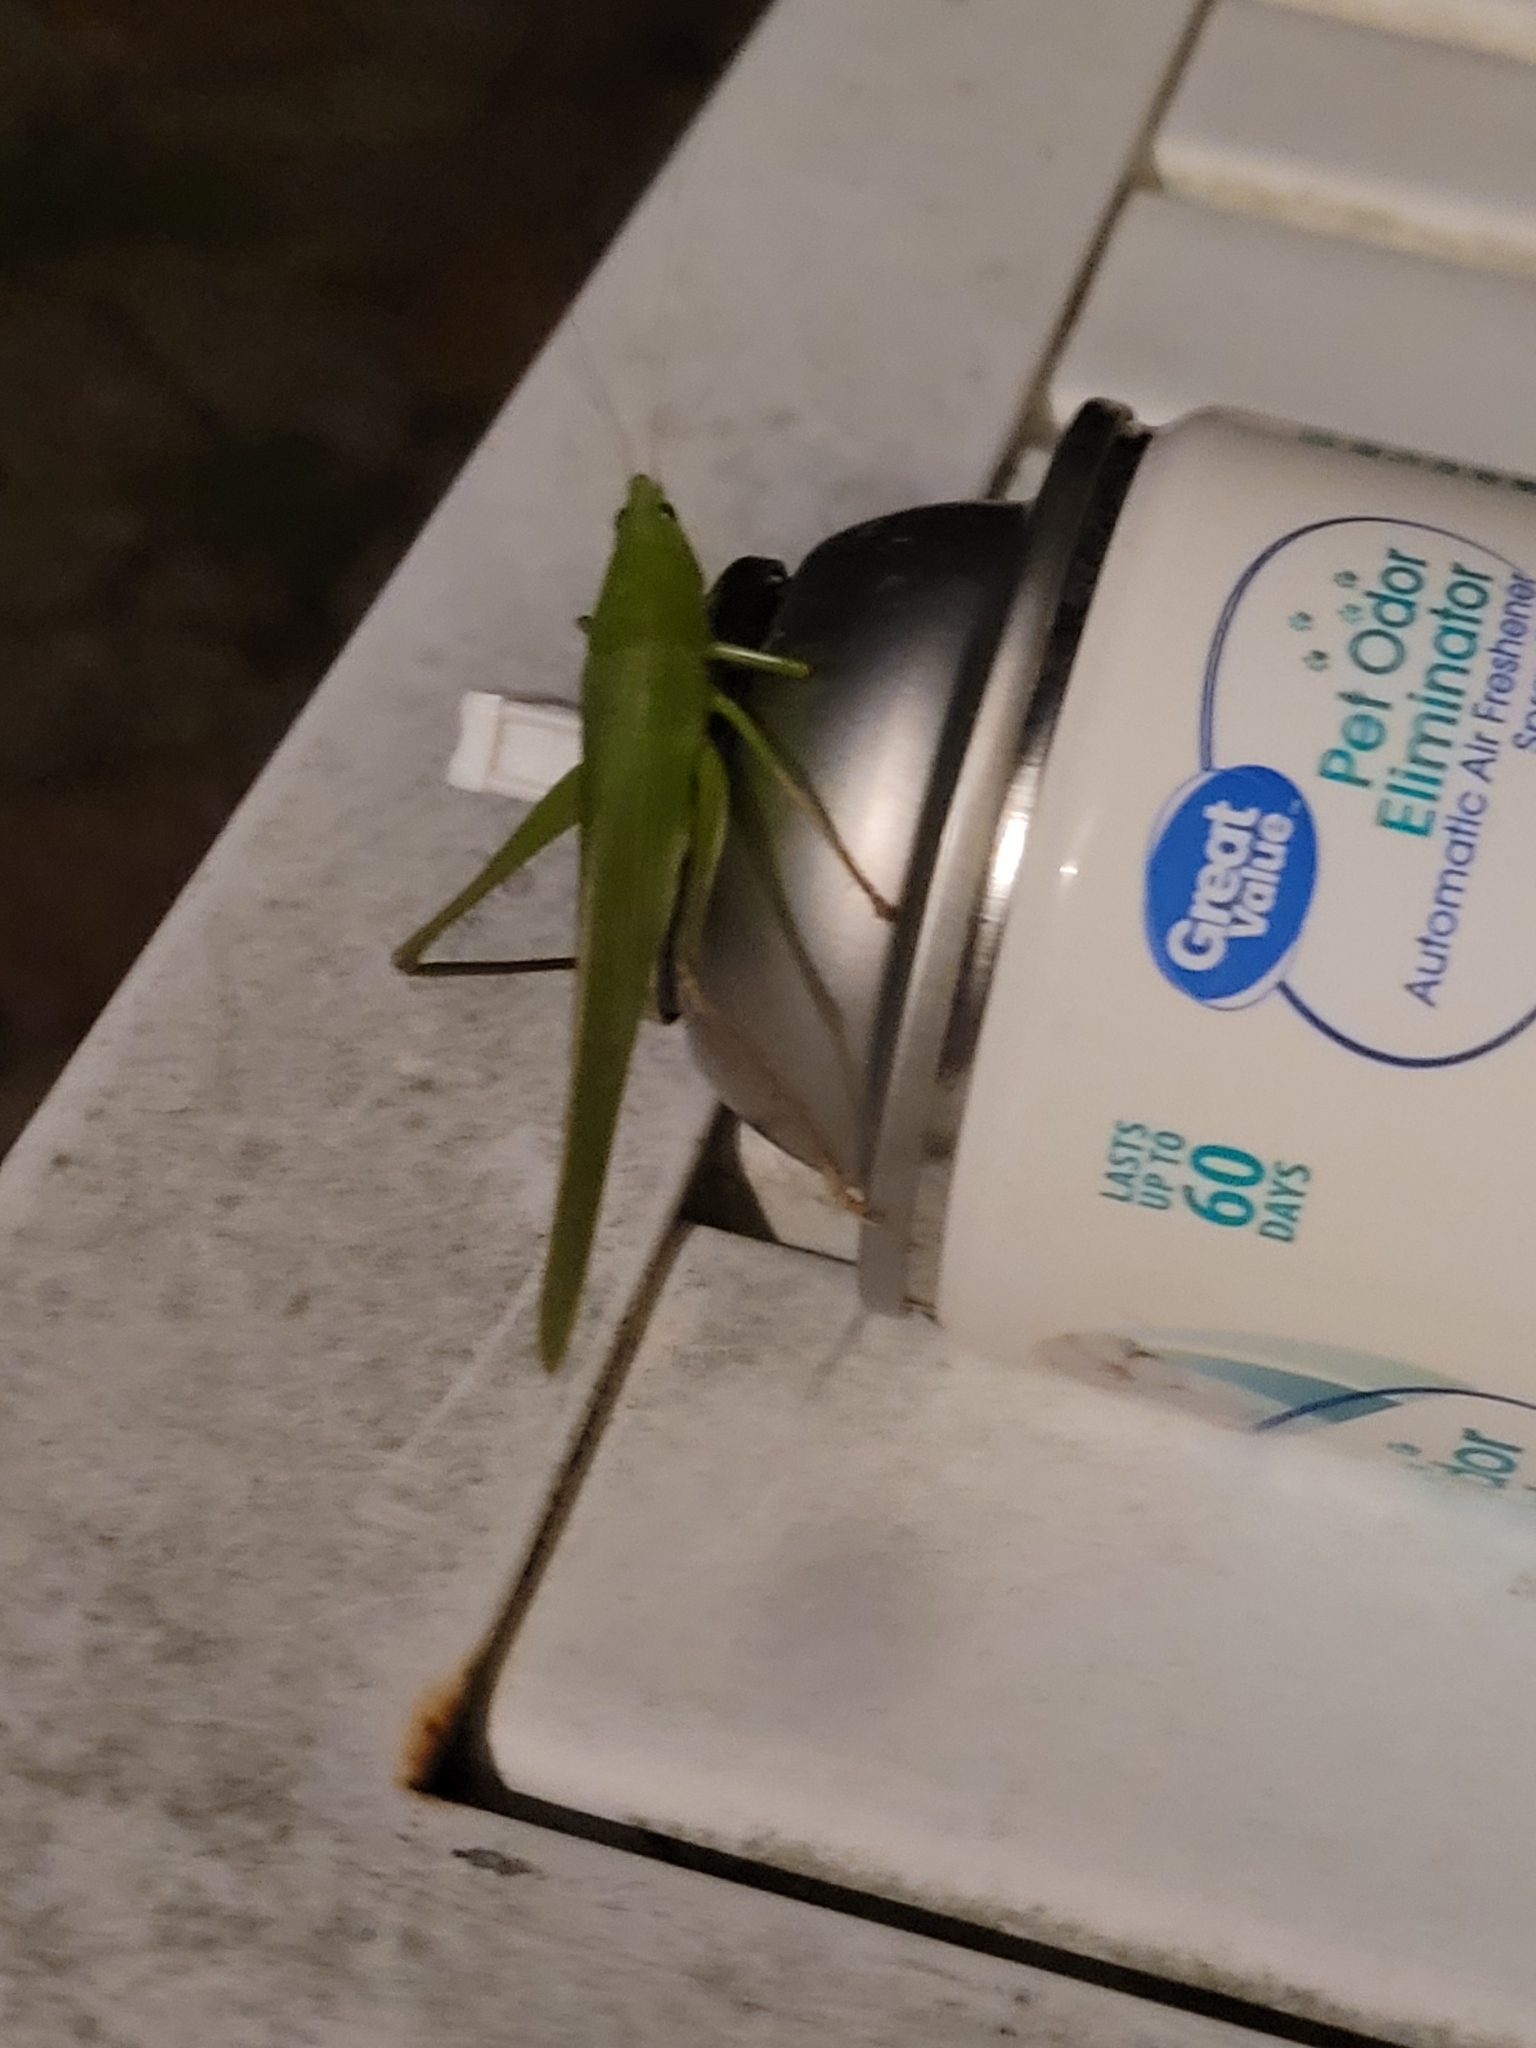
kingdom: Animalia
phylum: Arthropoda
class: Insecta
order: Orthoptera
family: Tettigoniidae
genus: Neoconocephalus
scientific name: Neoconocephalus triops
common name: Broad-tipped conehead
